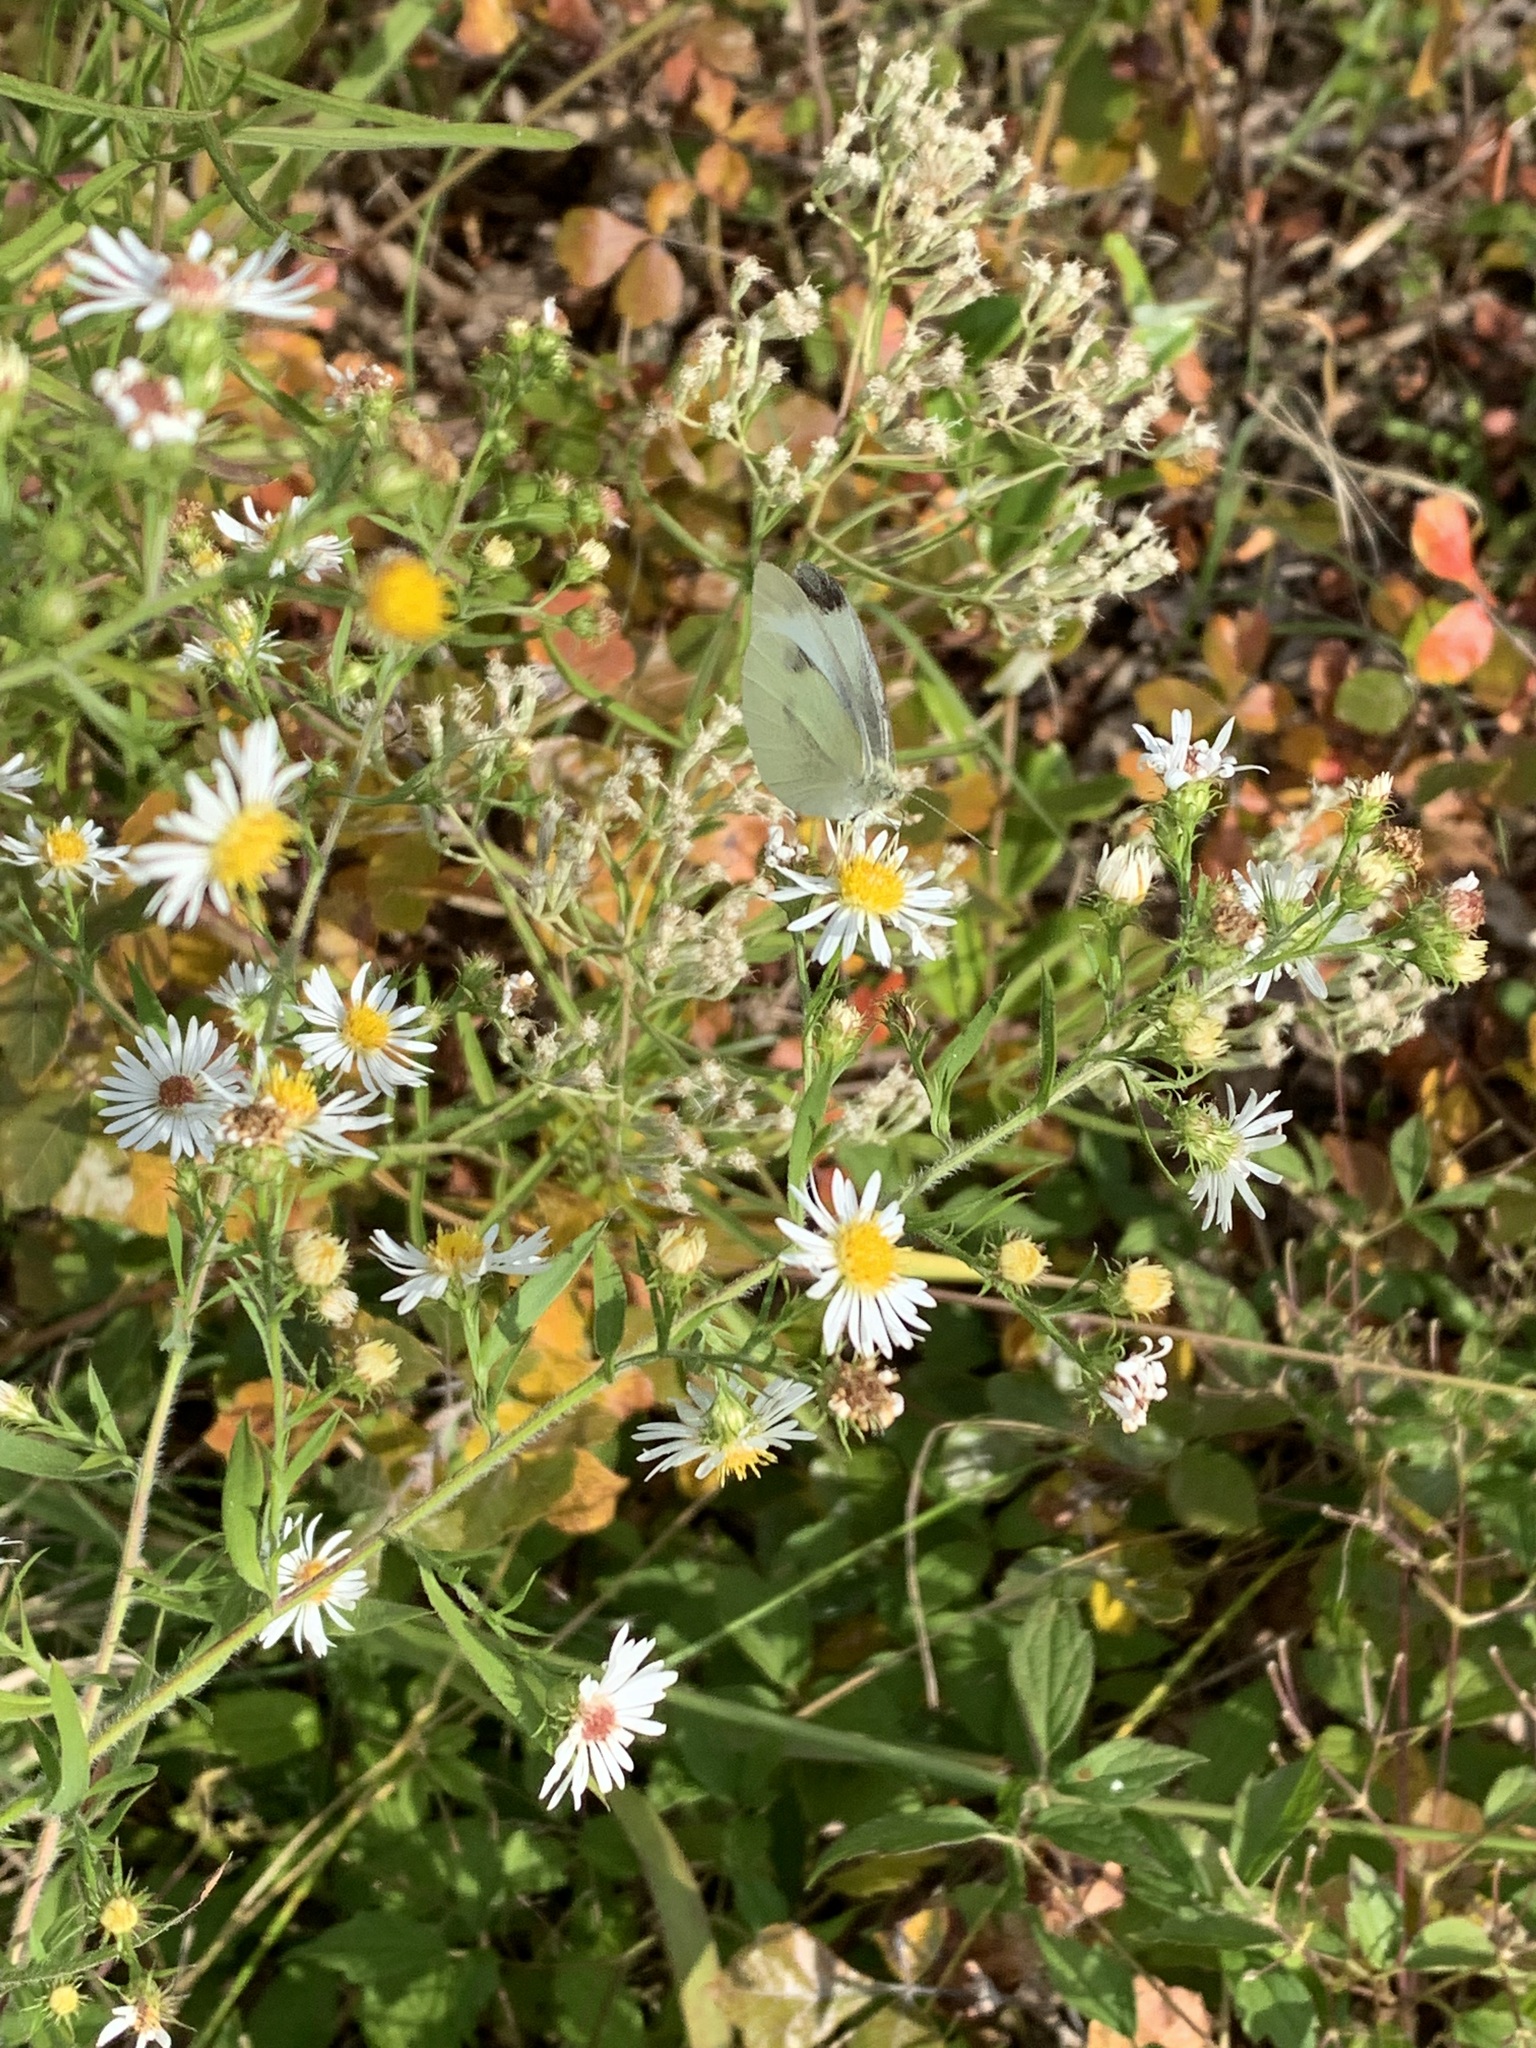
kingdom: Animalia
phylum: Arthropoda
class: Insecta
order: Lepidoptera
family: Pieridae
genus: Pieris
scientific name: Pieris rapae
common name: Small white
